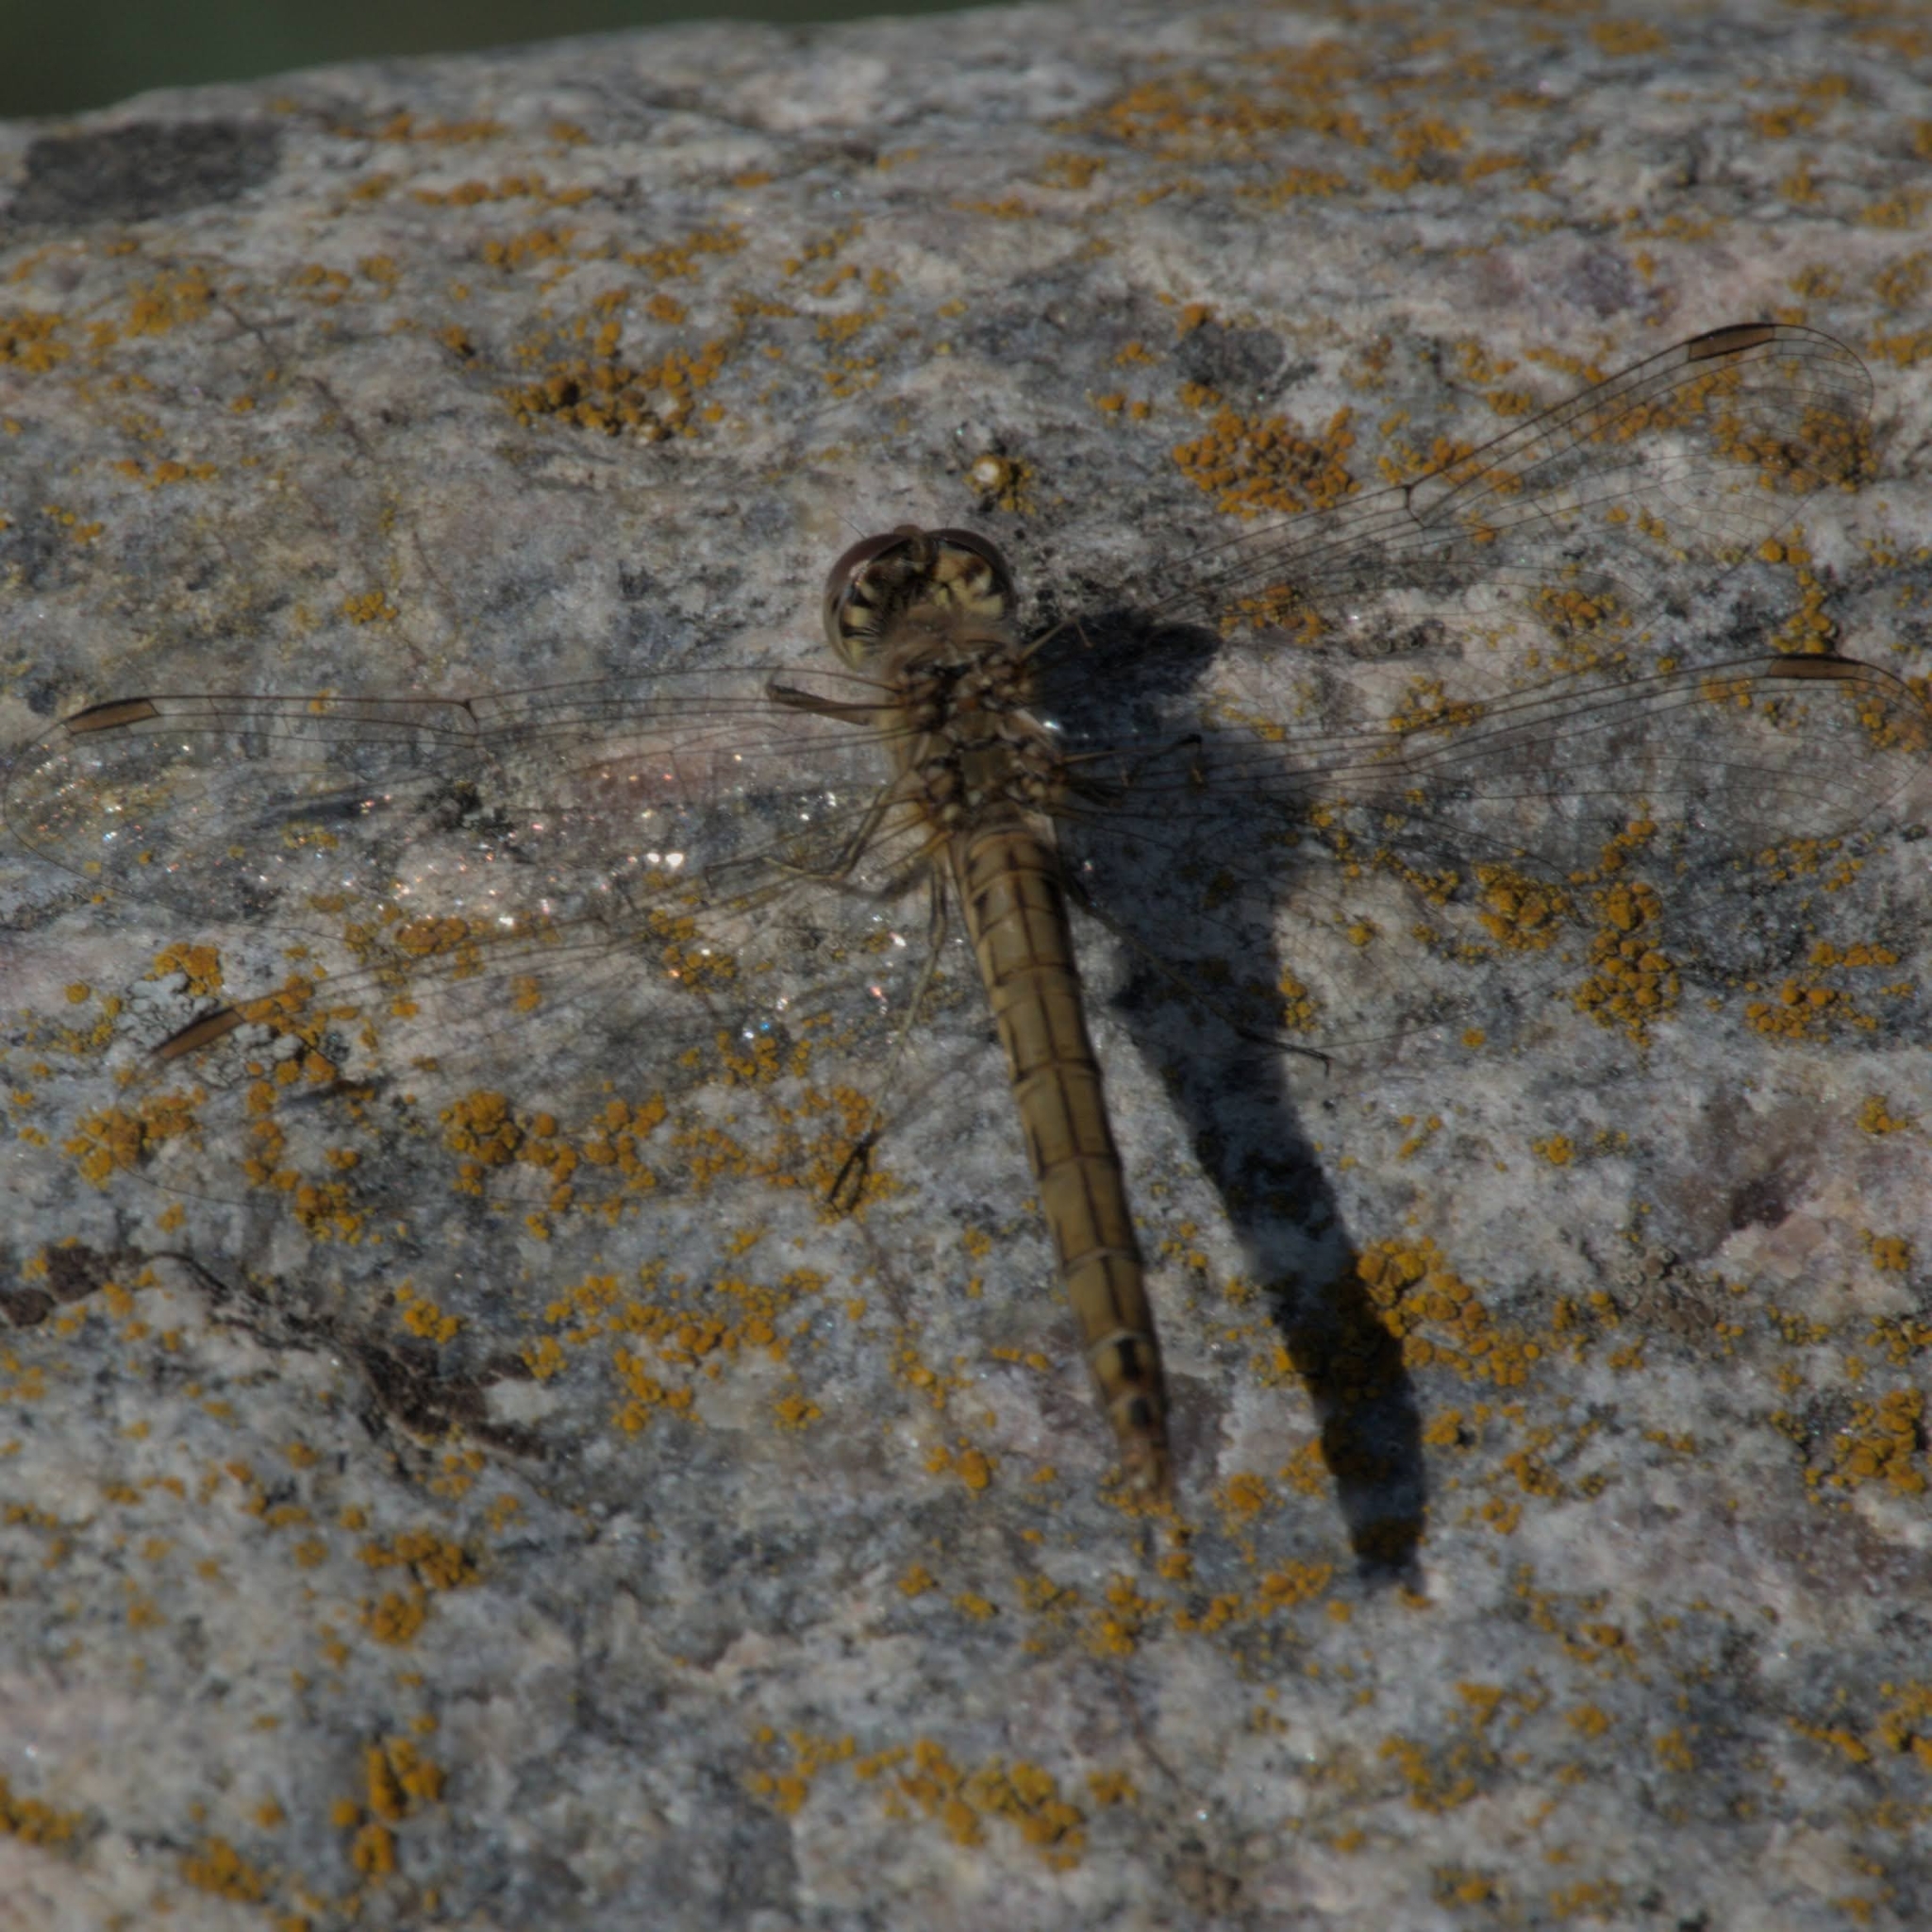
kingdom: Animalia
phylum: Arthropoda
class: Insecta
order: Odonata
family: Libellulidae
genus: Sympetrum
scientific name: Sympetrum striolatum
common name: Common darter
